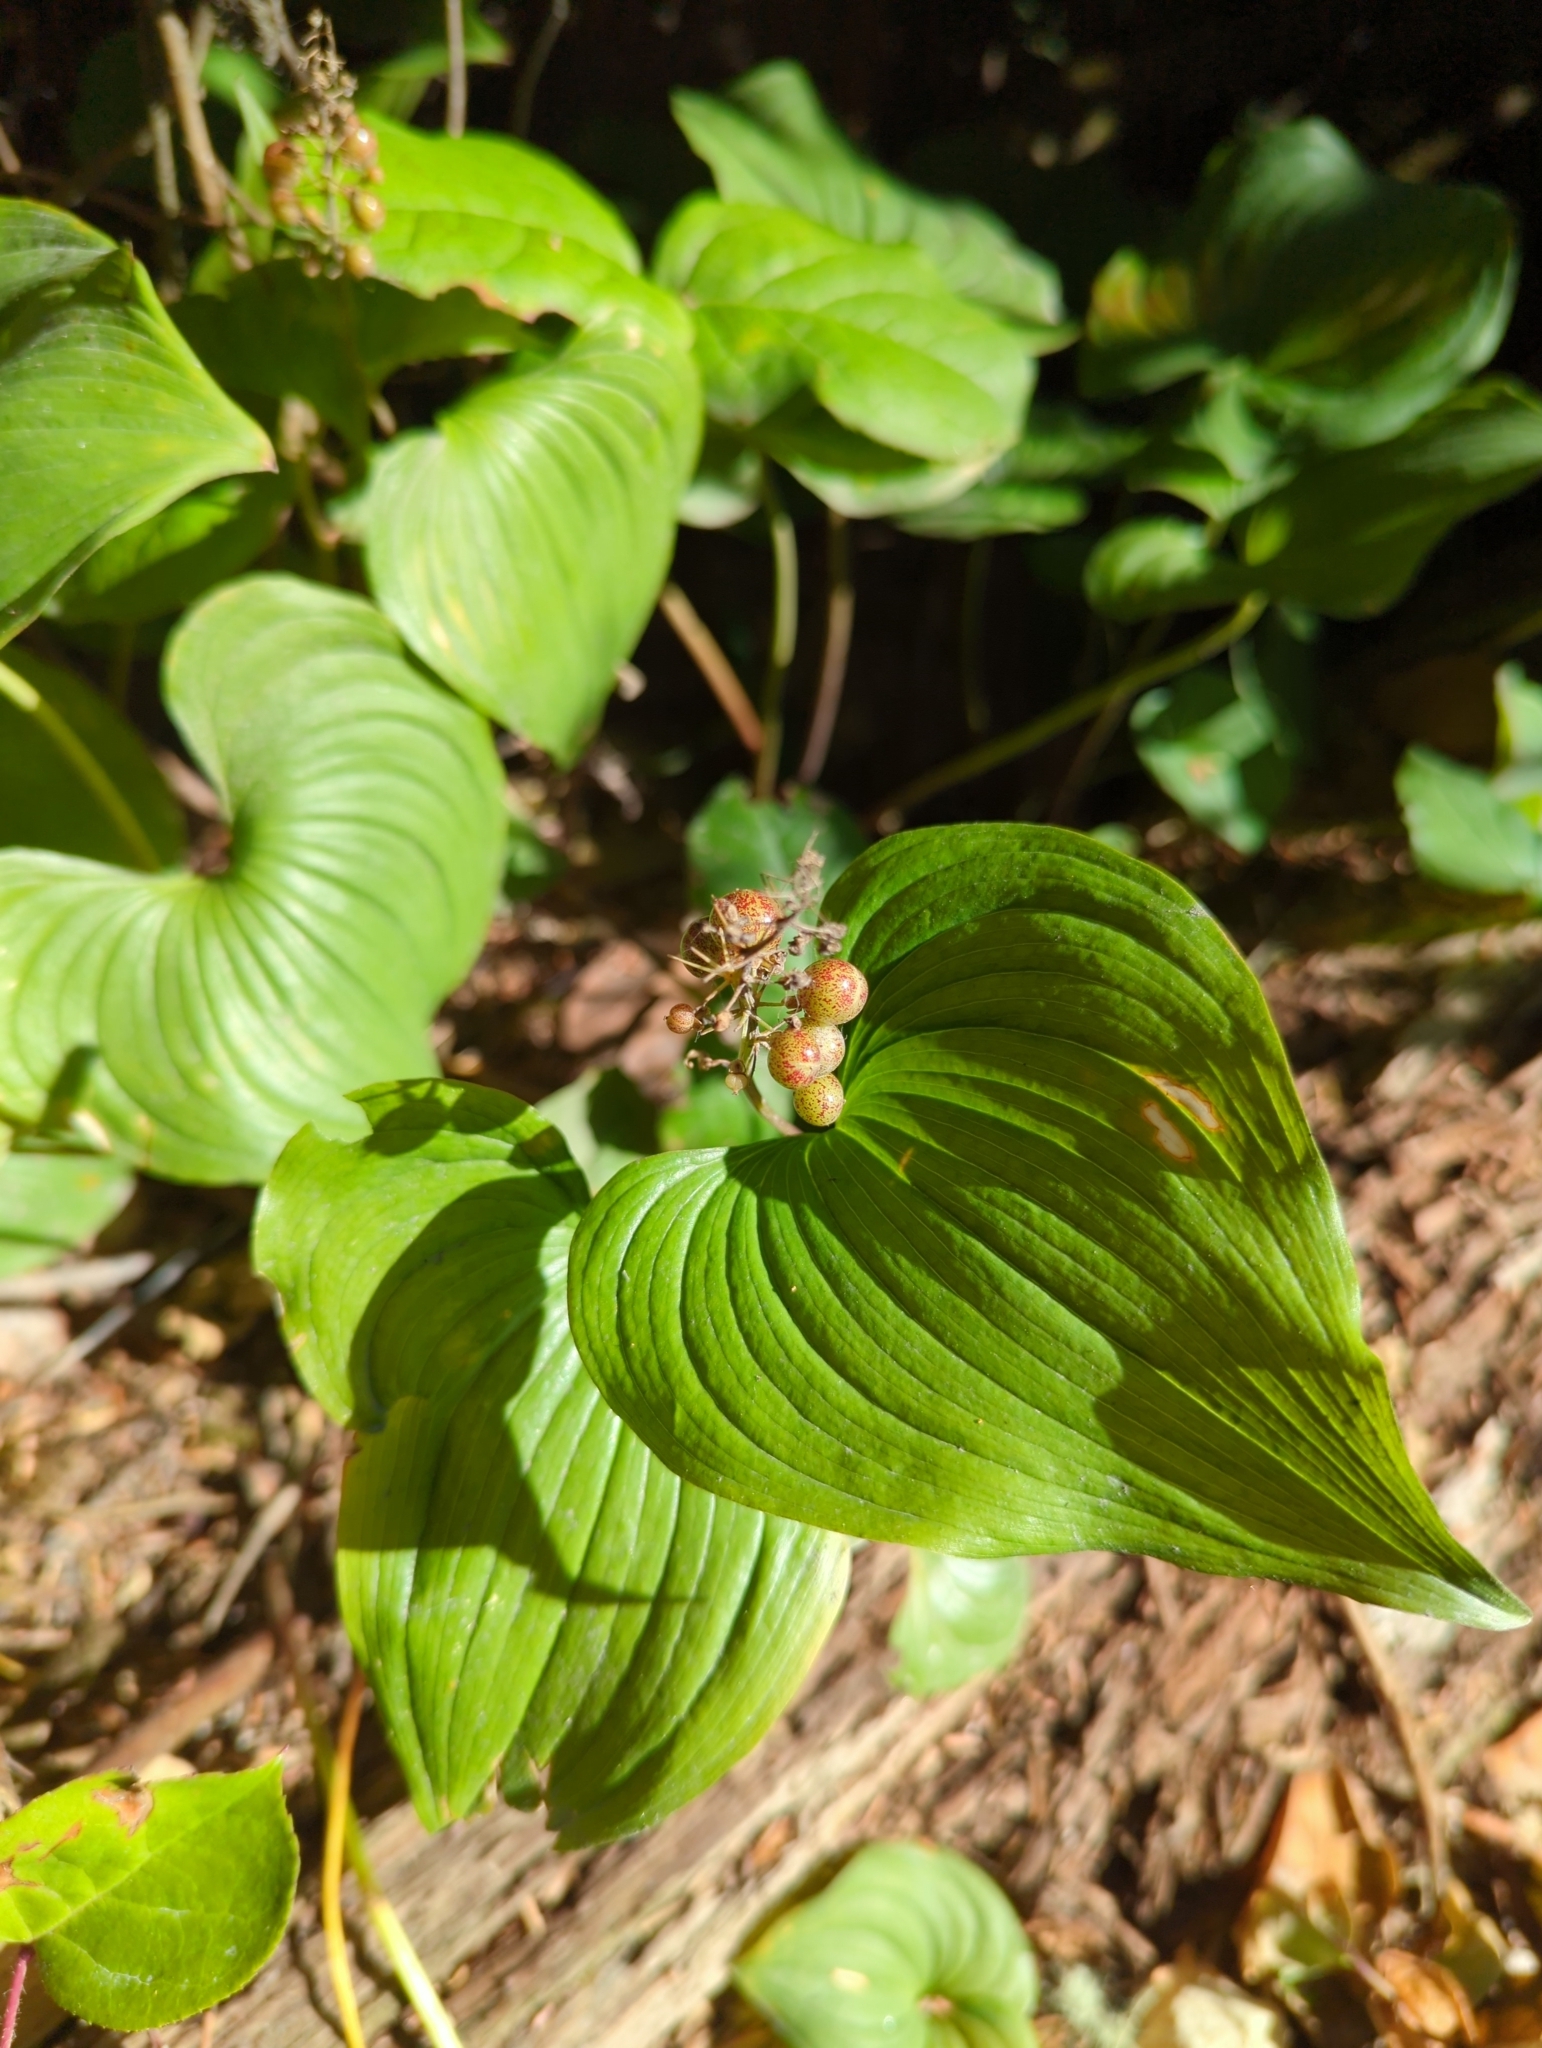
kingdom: Plantae
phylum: Tracheophyta
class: Liliopsida
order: Asparagales
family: Asparagaceae
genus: Maianthemum
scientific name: Maianthemum dilatatum
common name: False lily-of-the-valley
